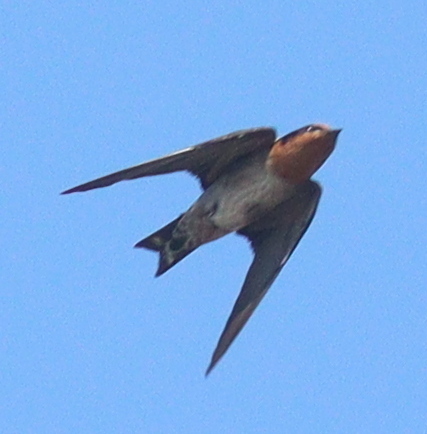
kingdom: Animalia
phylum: Chordata
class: Aves
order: Passeriformes
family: Hirundinidae
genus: Hirundo
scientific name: Hirundo tahitica
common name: Pacific swallow
